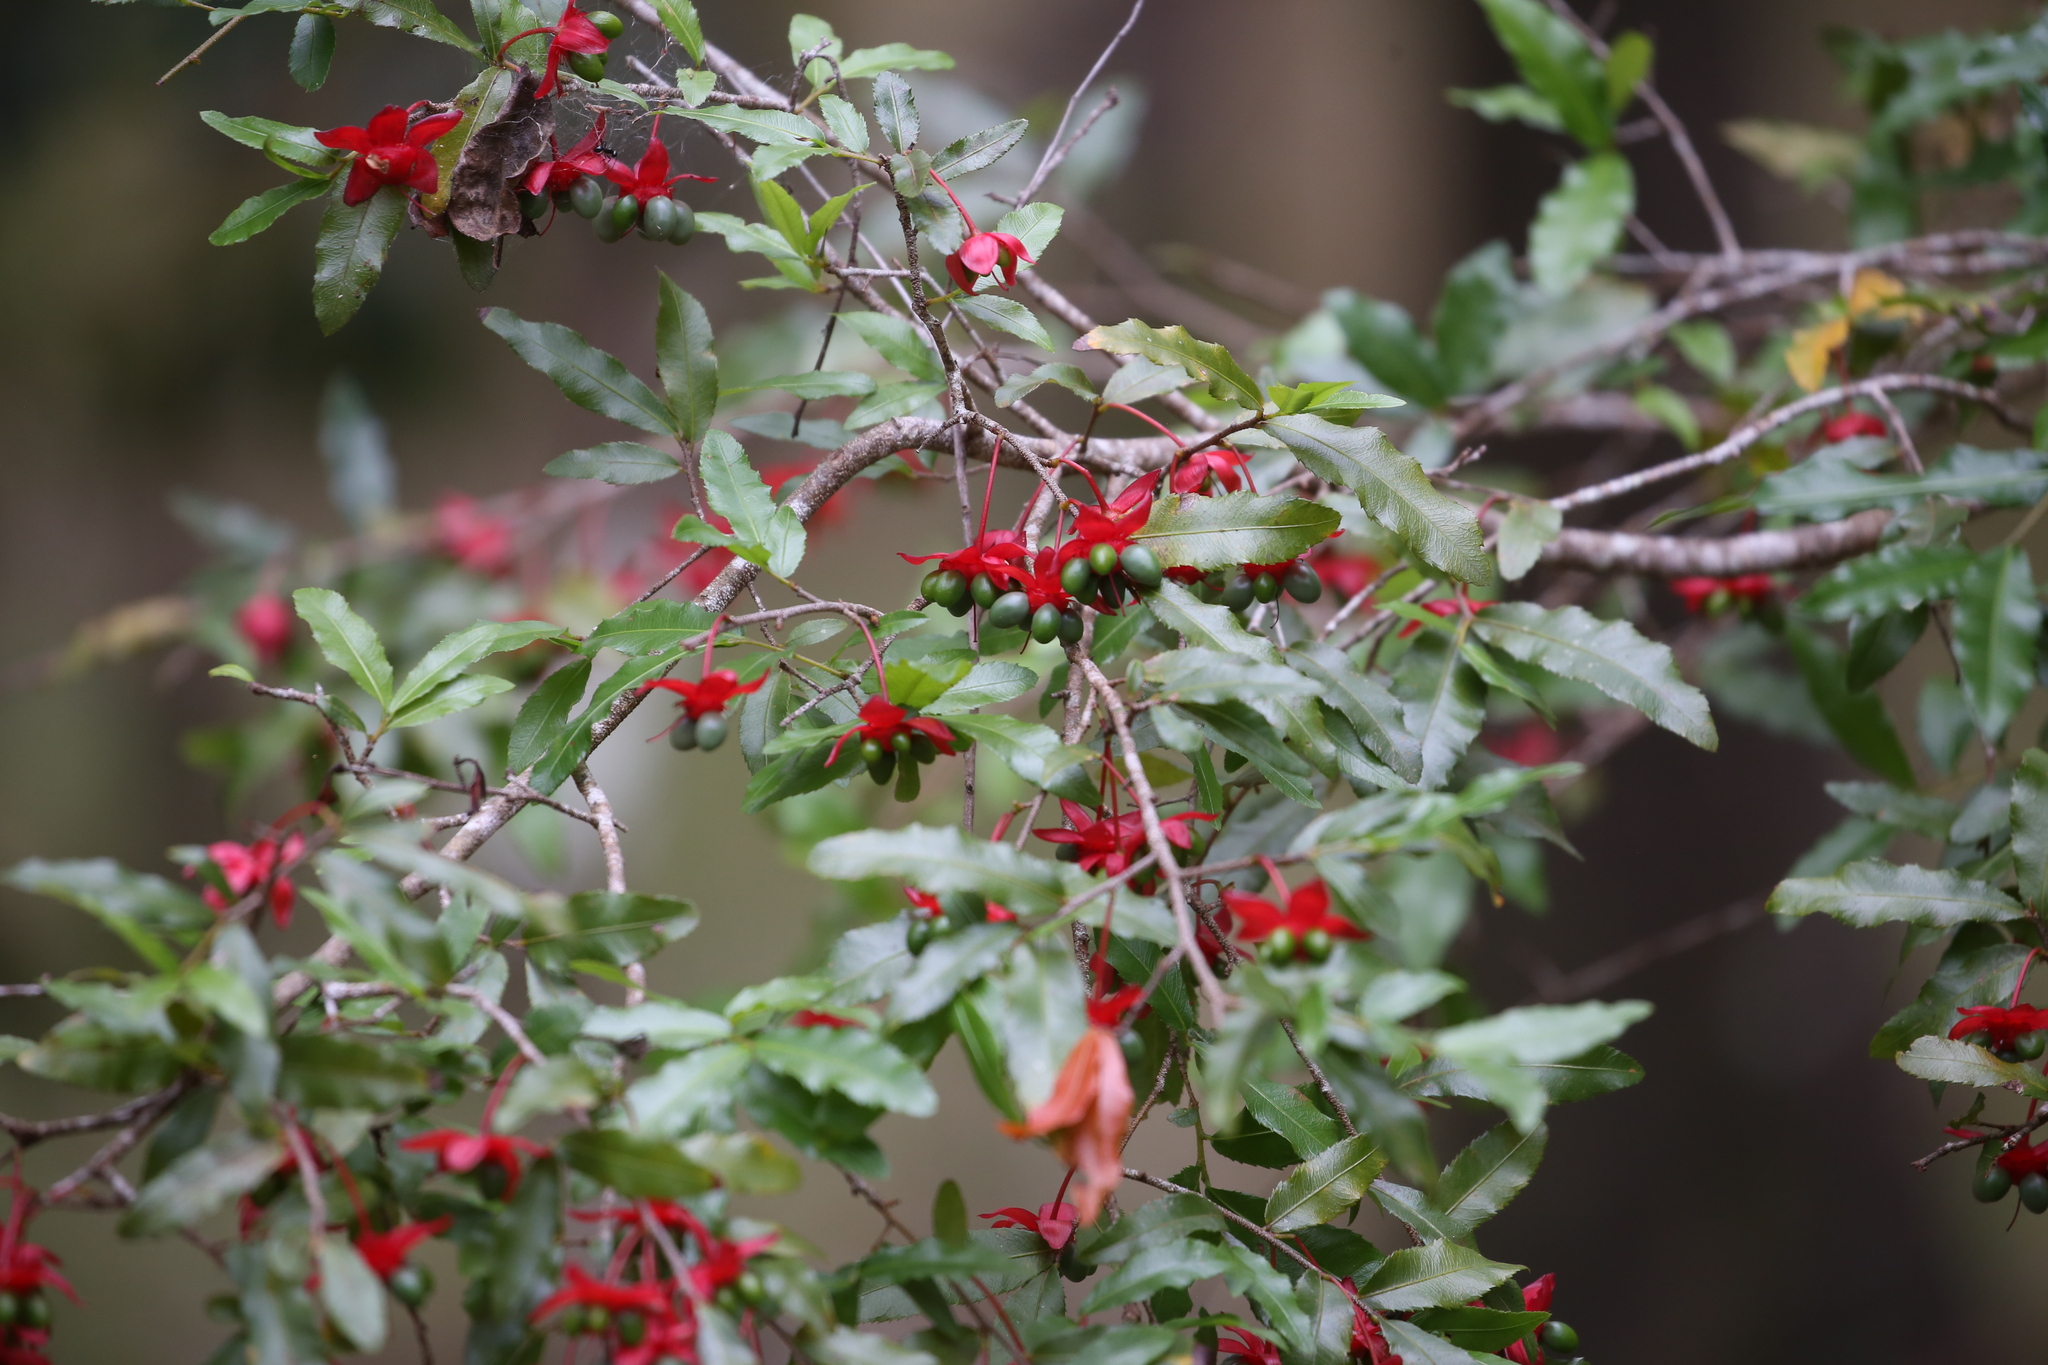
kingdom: Plantae
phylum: Tracheophyta
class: Magnoliopsida
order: Malpighiales
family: Ochnaceae
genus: Ochna
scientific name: Ochna serrulata
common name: Mickey mouse plant
